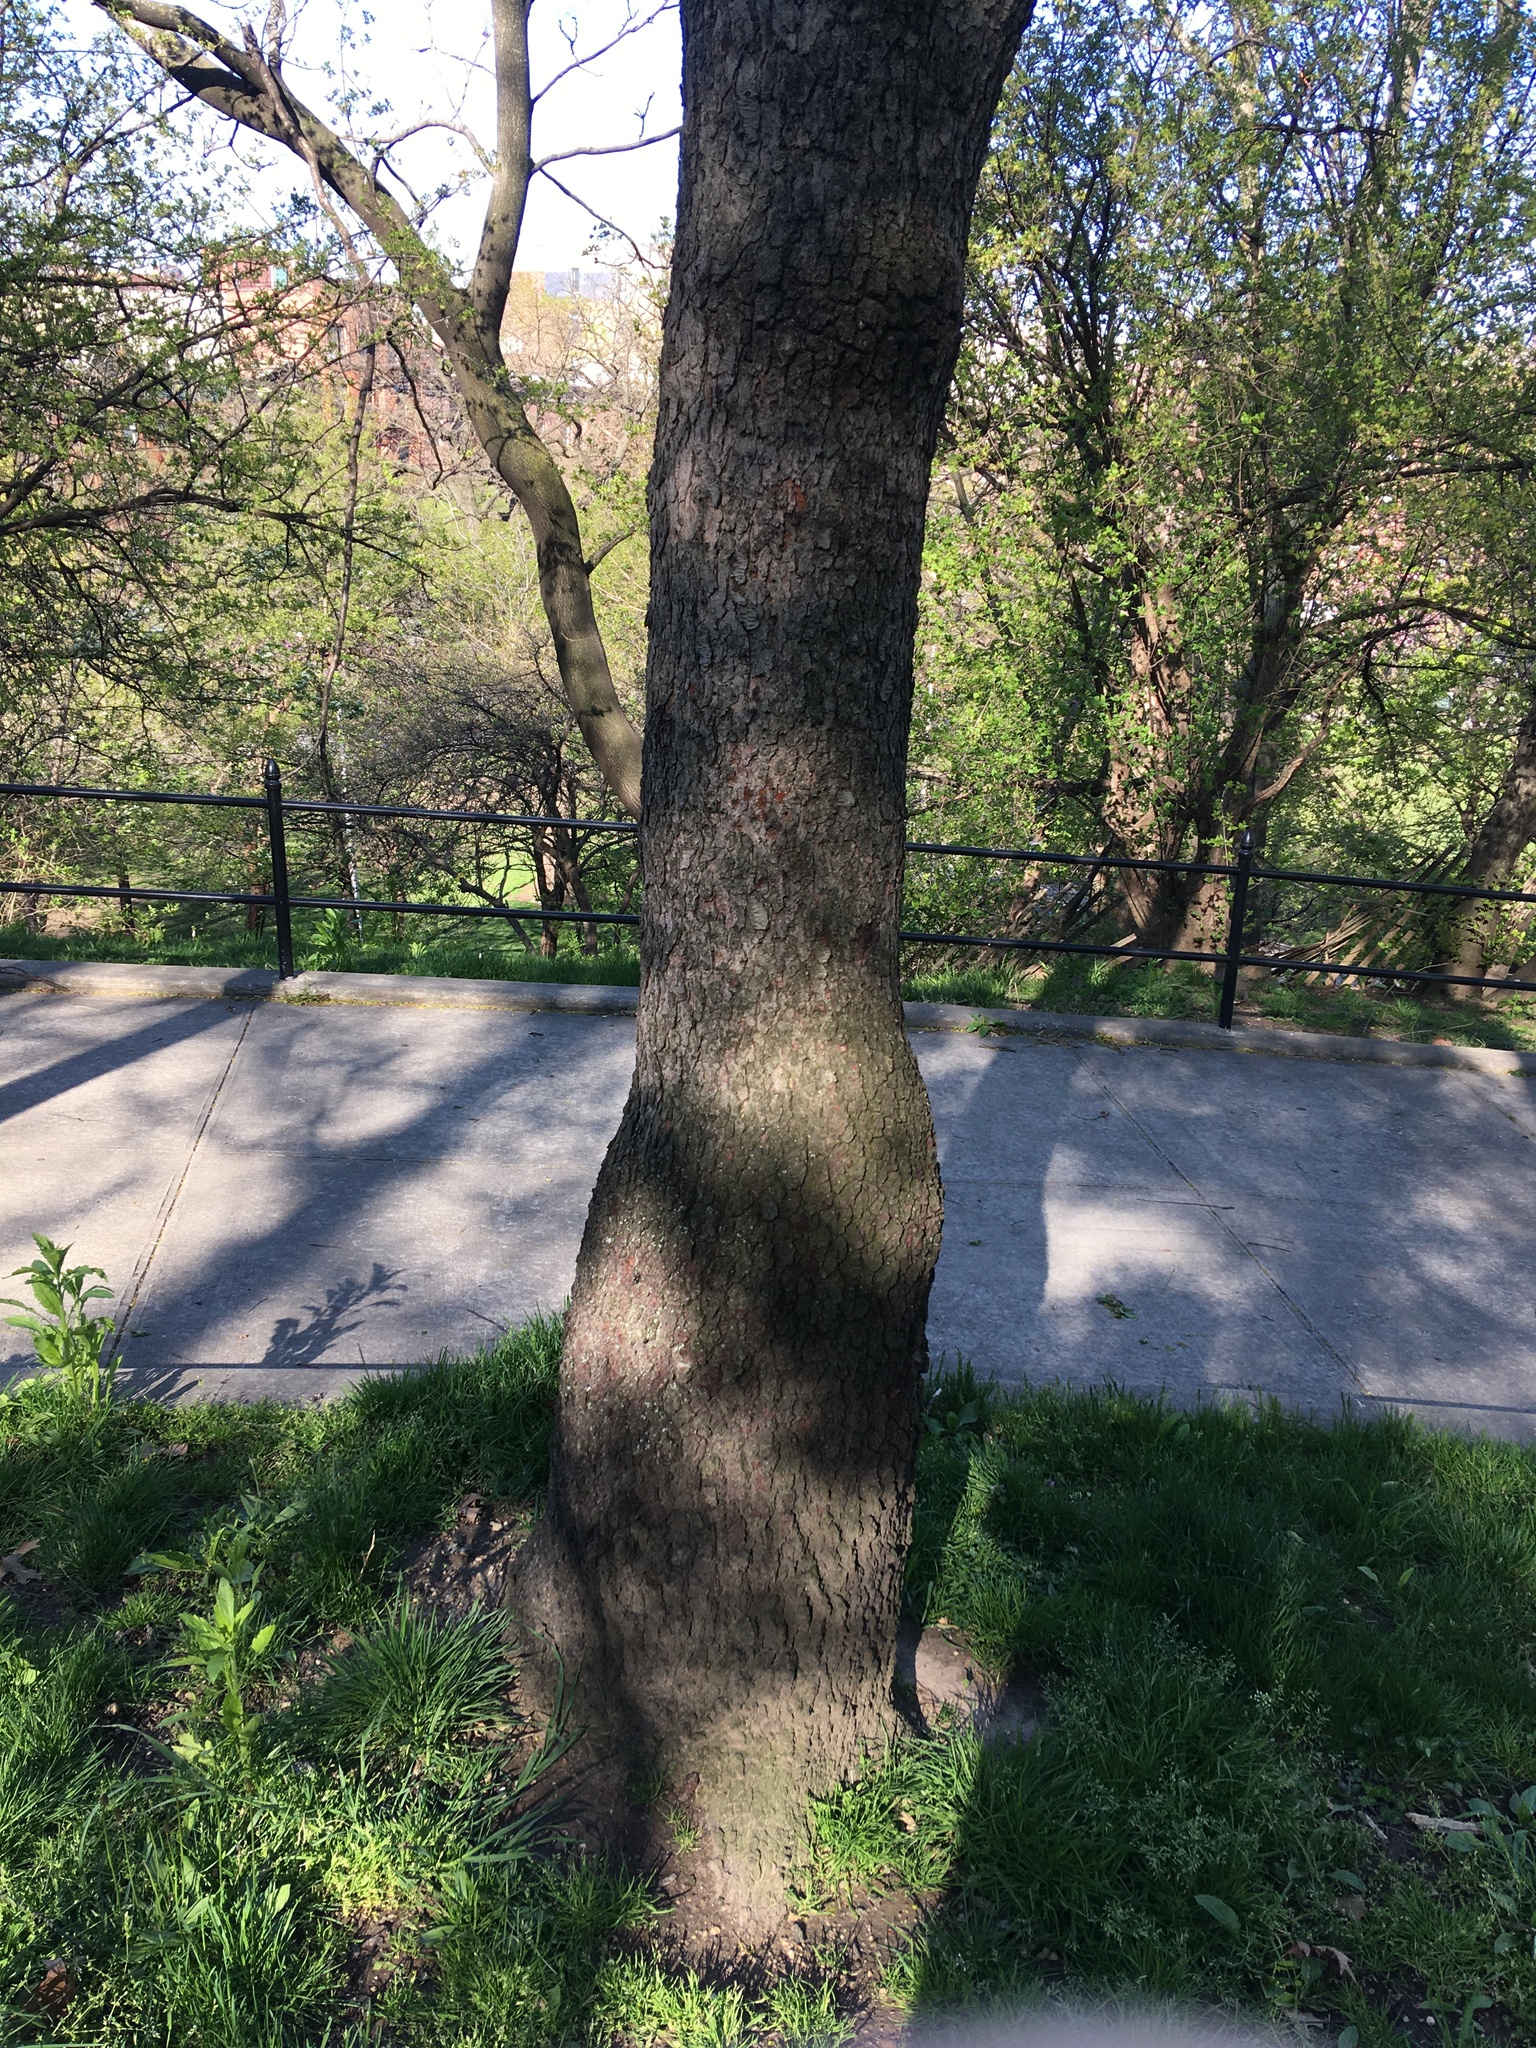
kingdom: Plantae
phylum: Tracheophyta
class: Magnoliopsida
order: Rosales
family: Rosaceae
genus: Prunus
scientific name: Prunus serotina
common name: Black cherry
